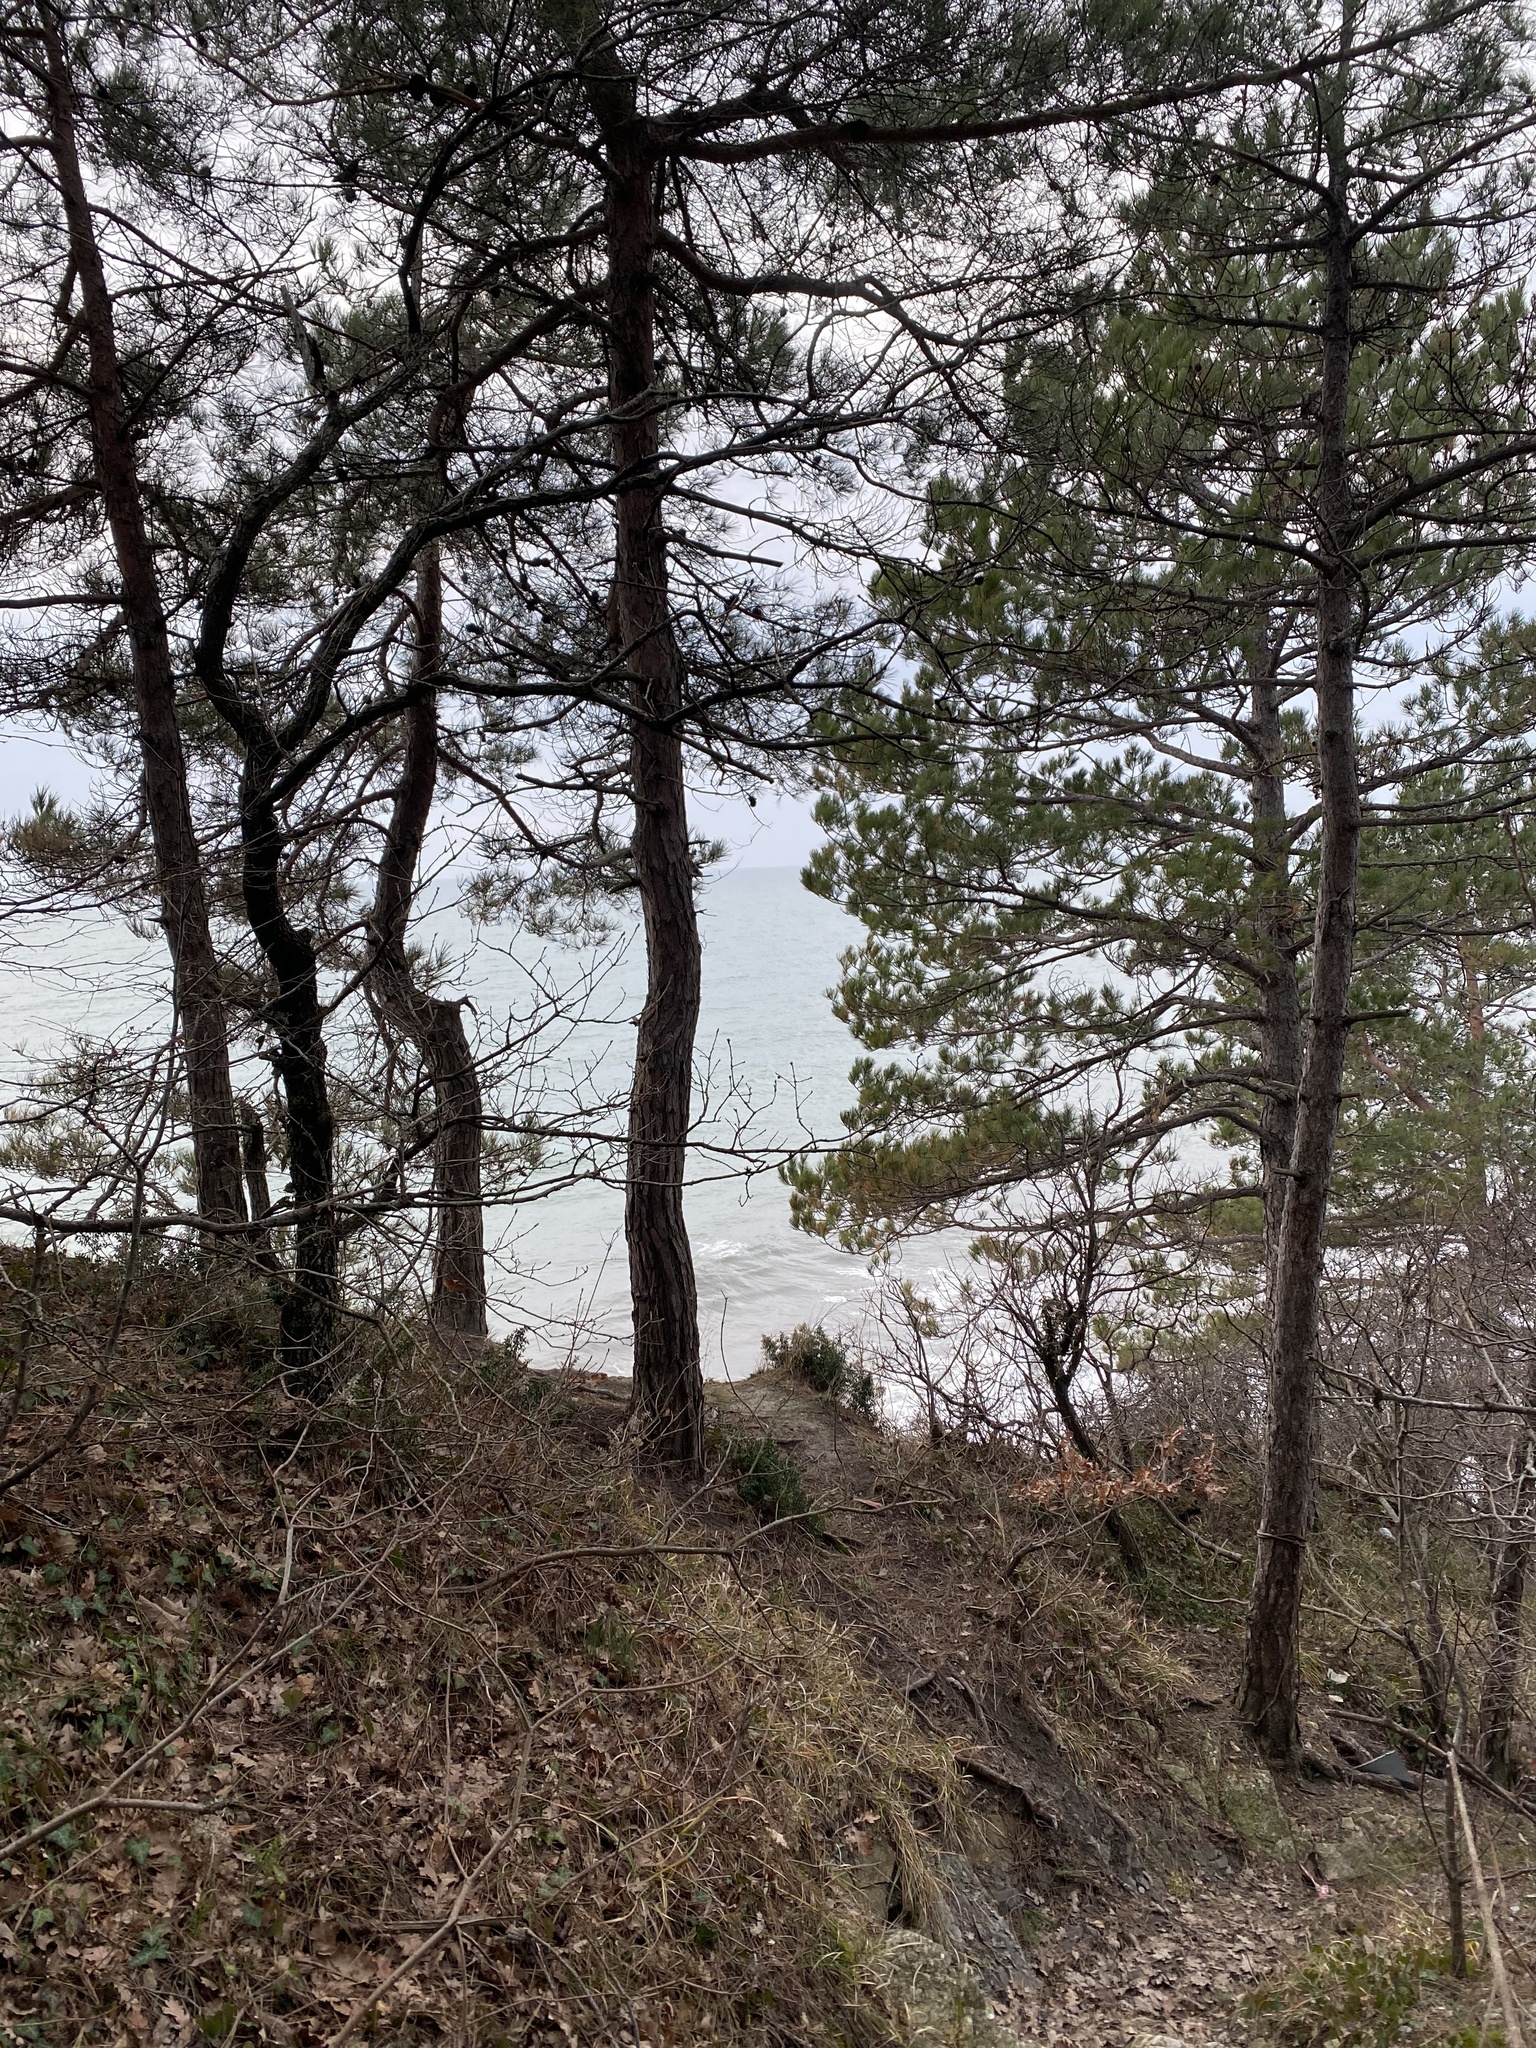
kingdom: Plantae
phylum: Tracheophyta
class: Pinopsida
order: Pinales
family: Pinaceae
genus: Pinus
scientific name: Pinus brutia
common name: Turkish pine
